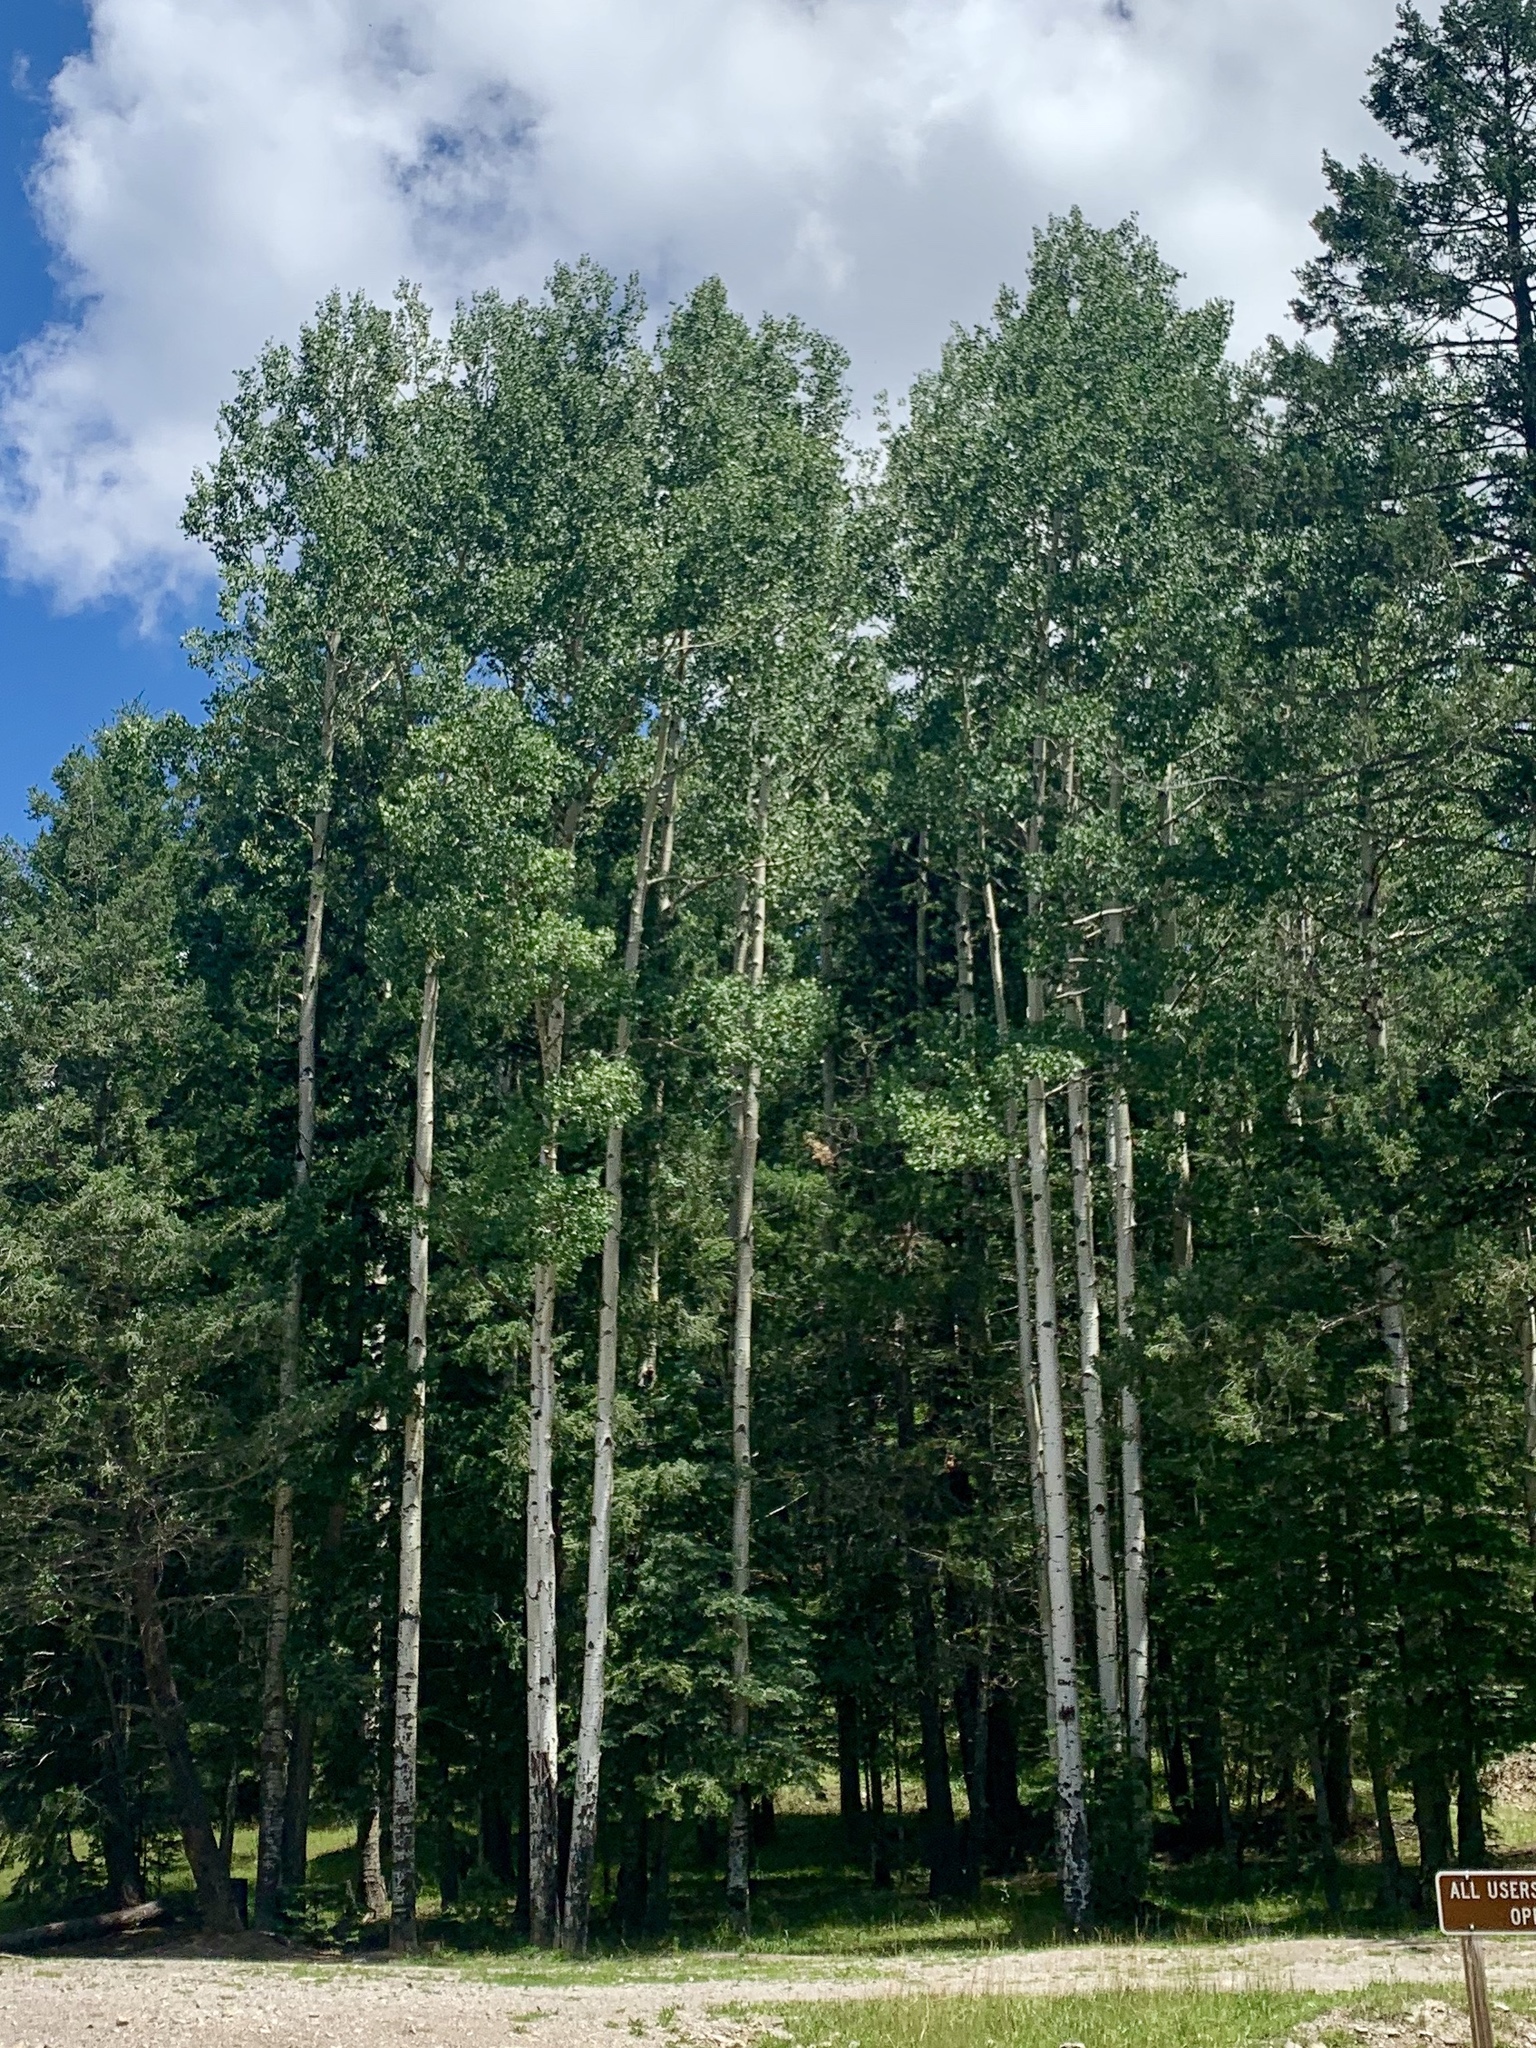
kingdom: Plantae
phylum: Tracheophyta
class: Magnoliopsida
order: Malpighiales
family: Salicaceae
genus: Populus
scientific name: Populus tremuloides
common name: Quaking aspen
